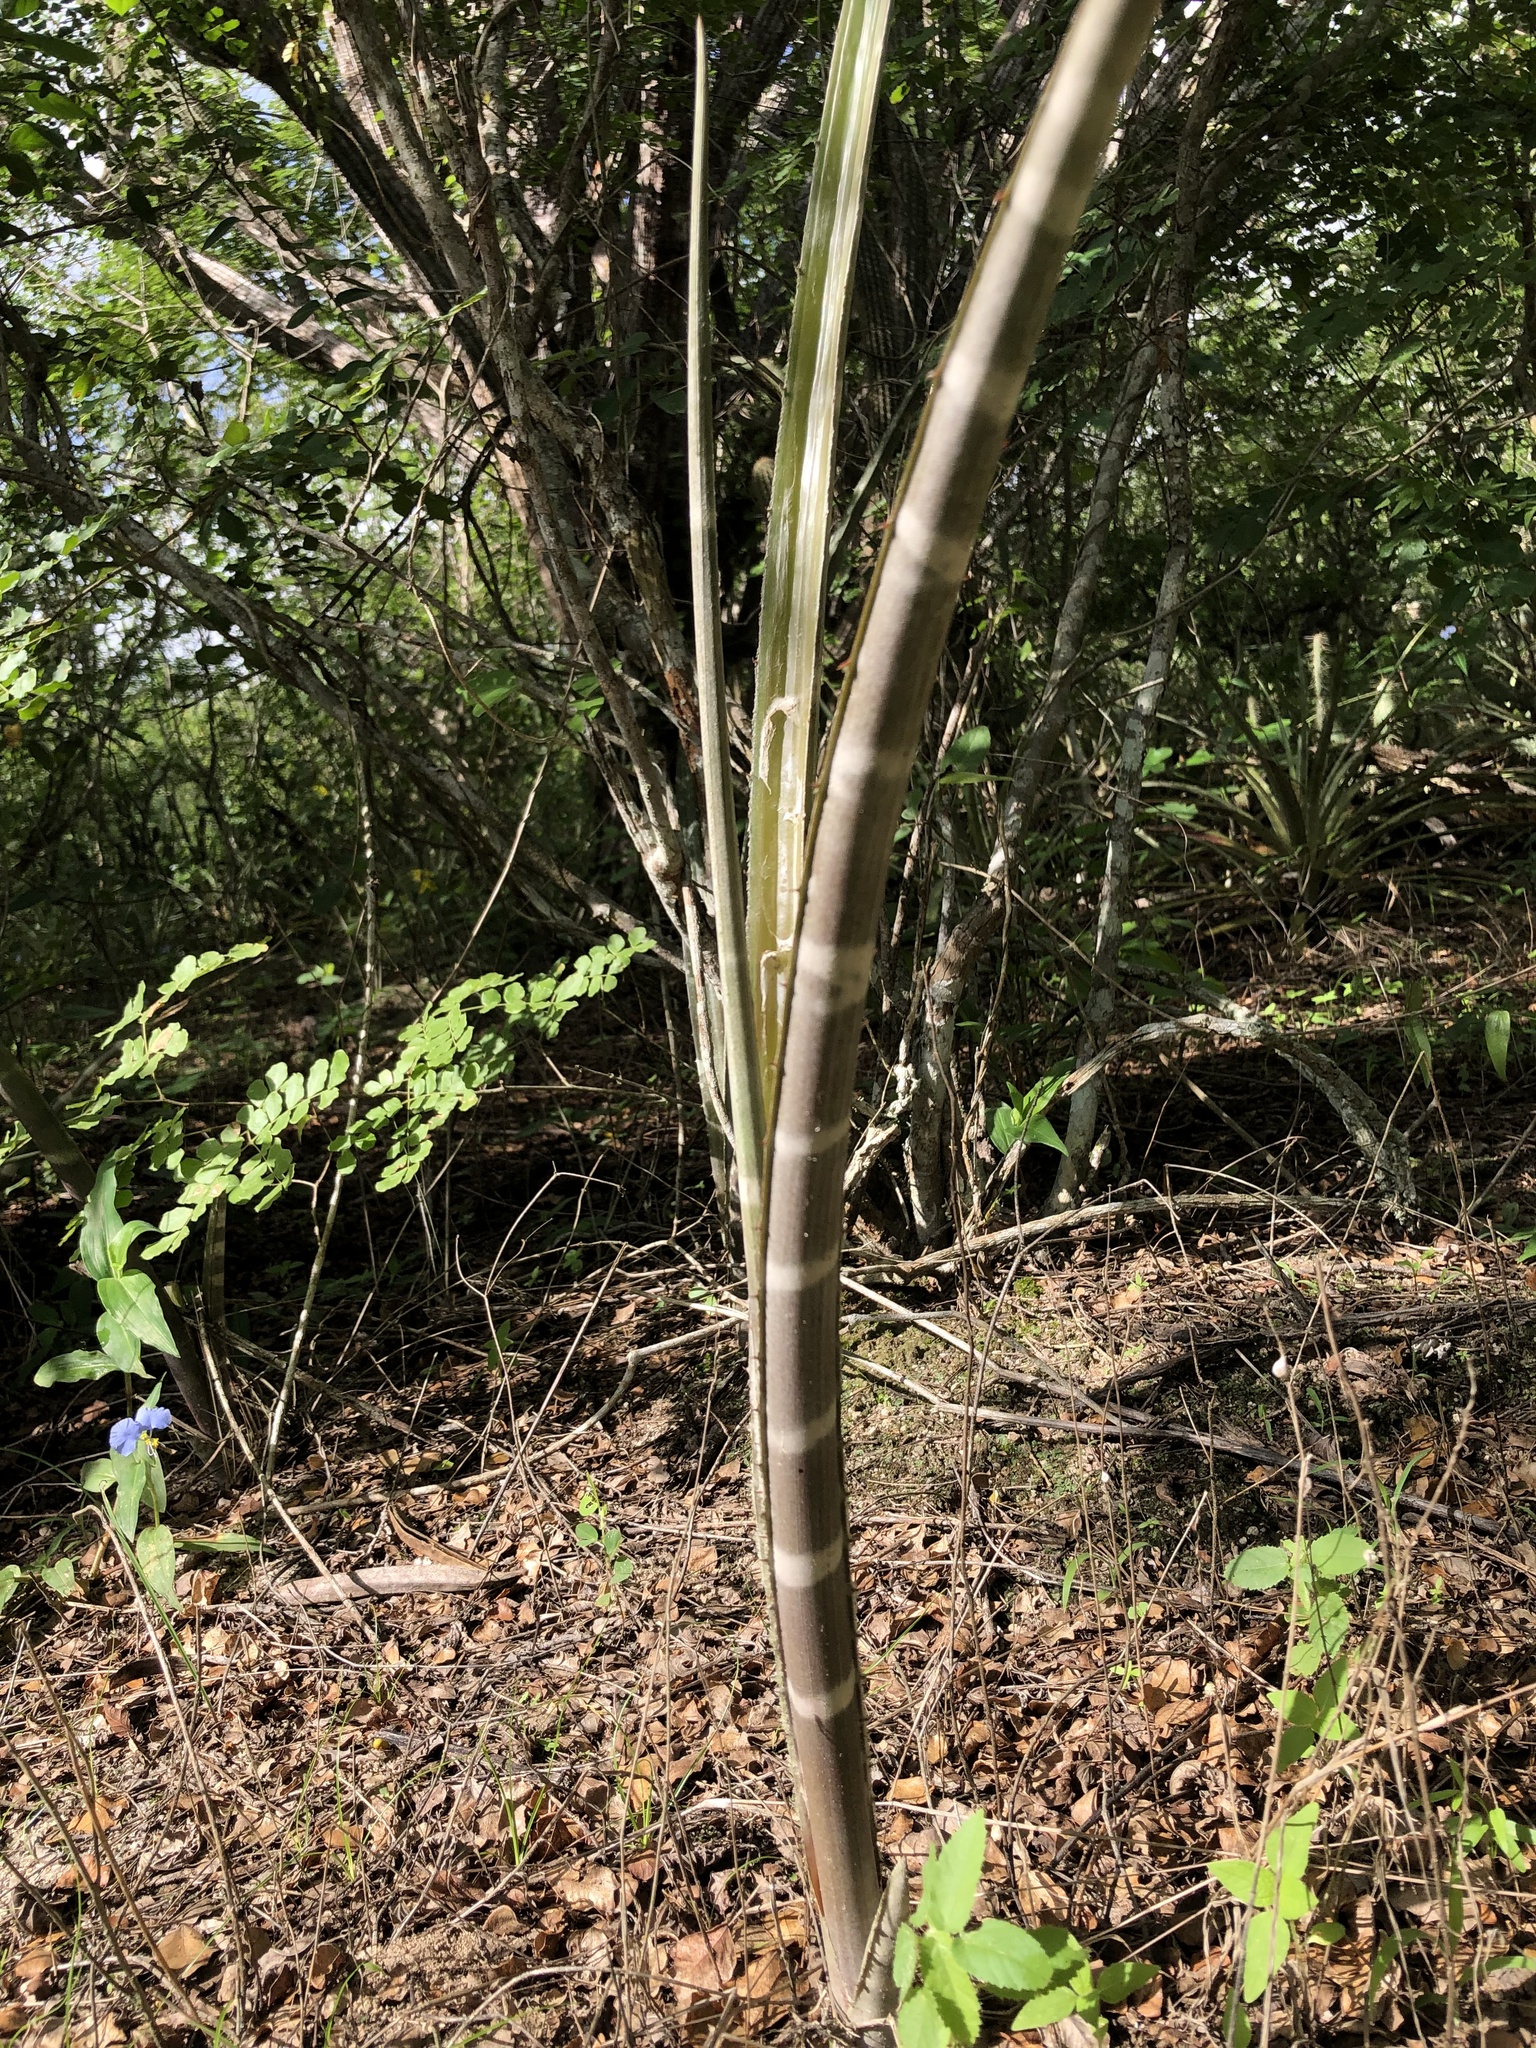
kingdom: Plantae
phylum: Tracheophyta
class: Liliopsida
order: Poales
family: Bromeliaceae
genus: Neoglaziovia
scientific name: Neoglaziovia variegata
